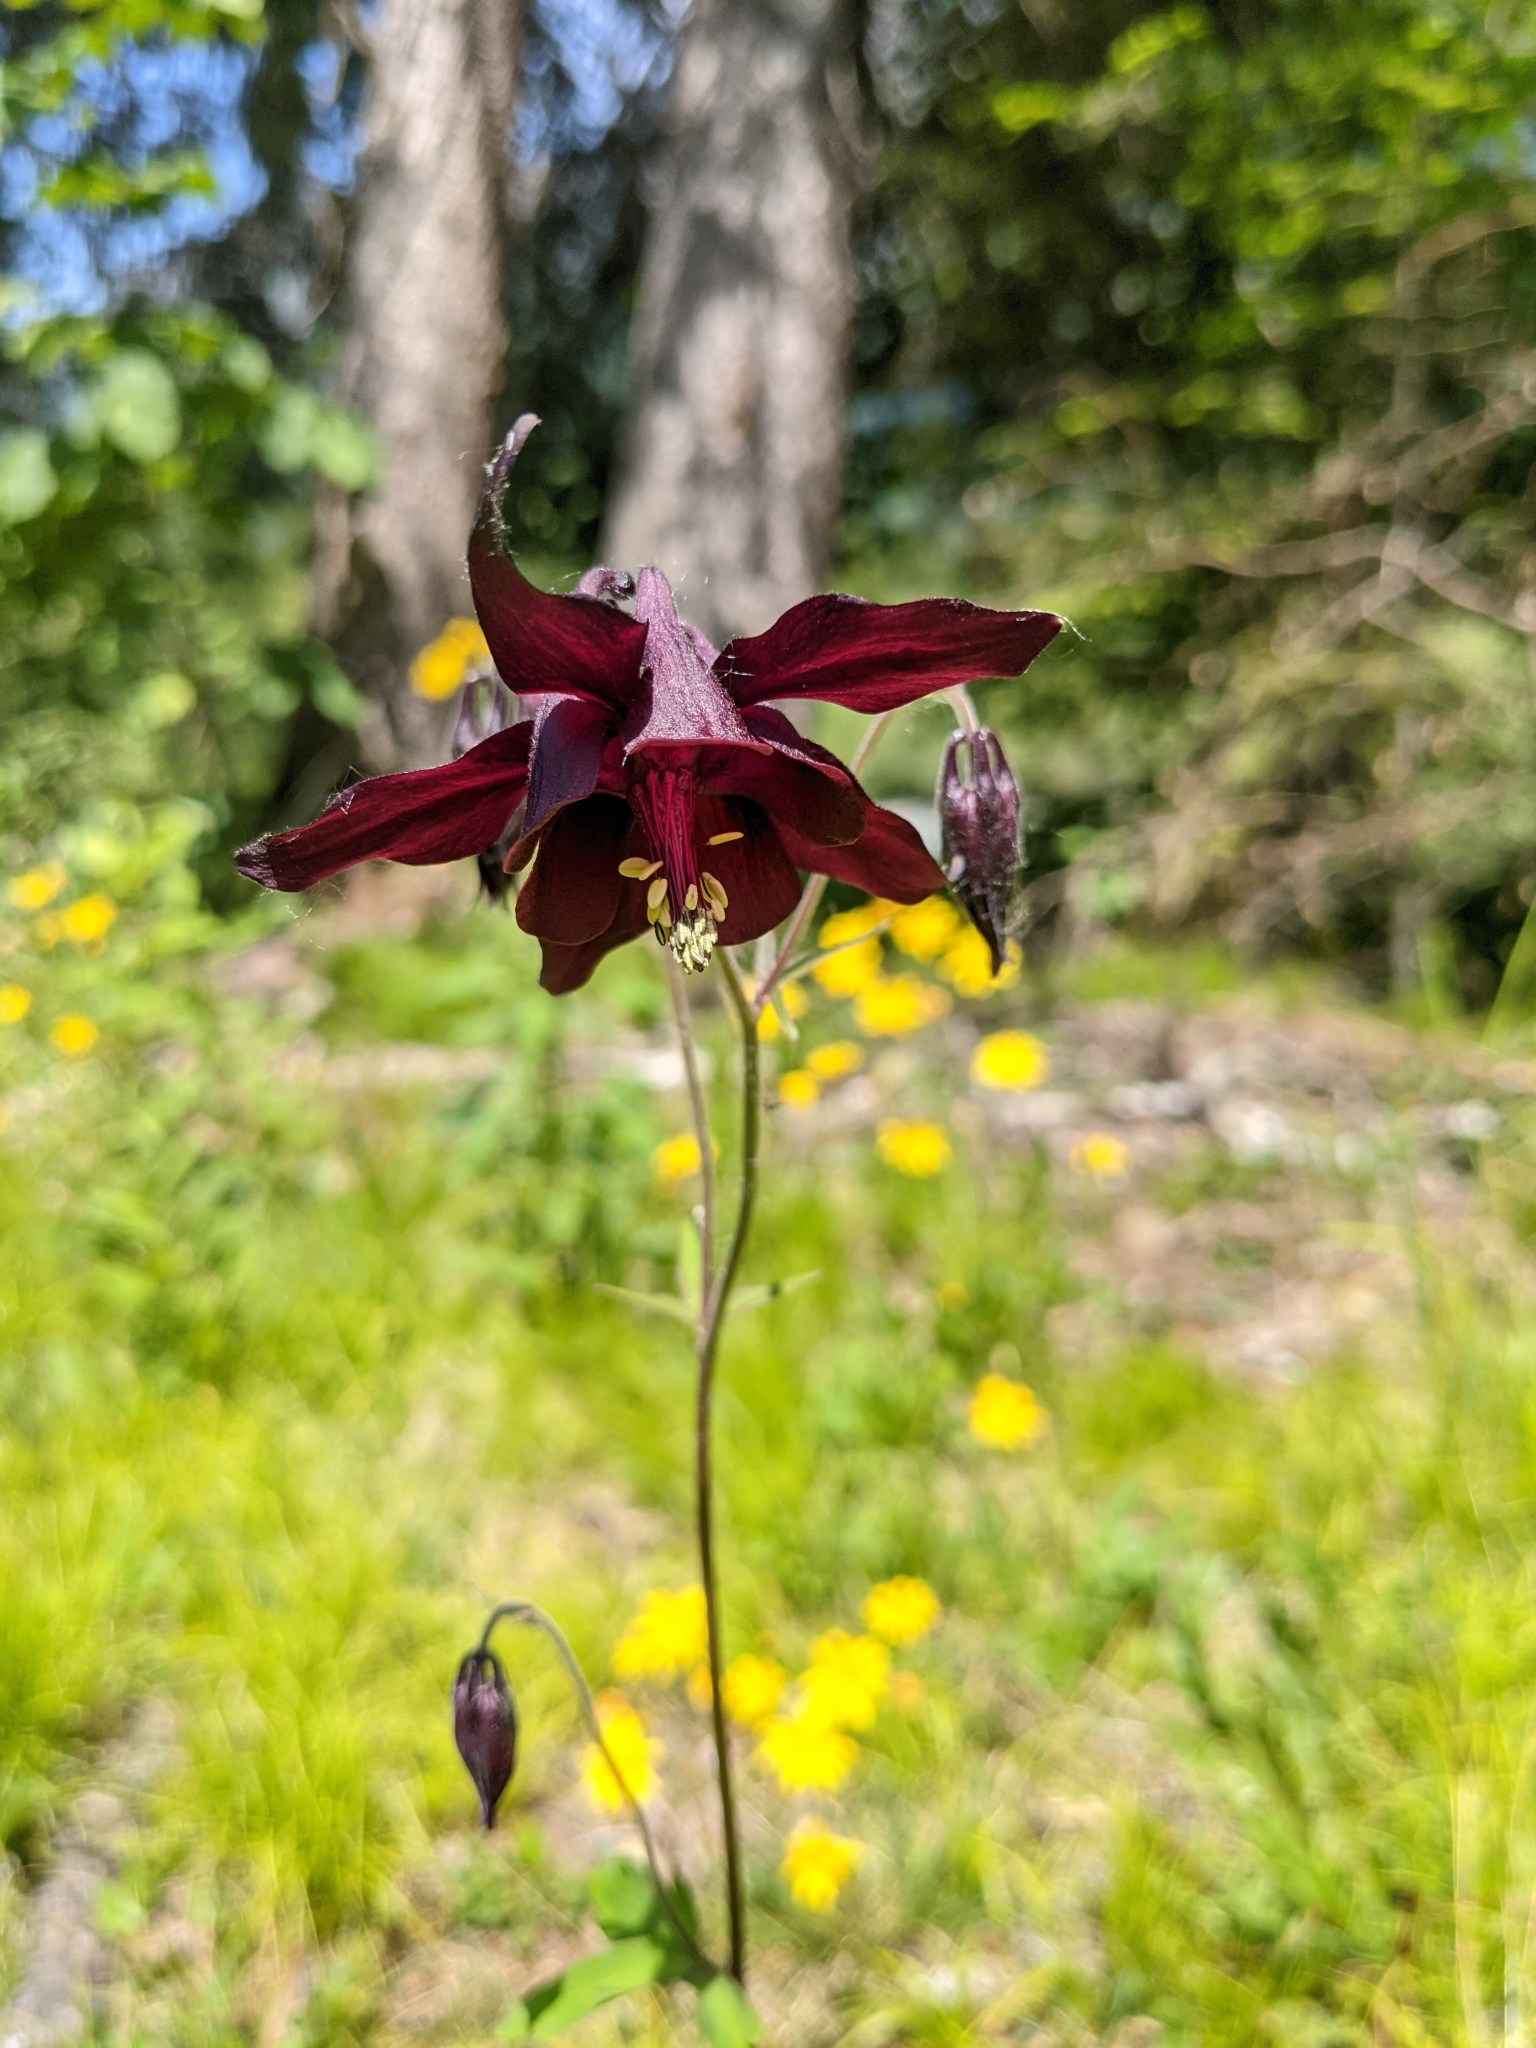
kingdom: Plantae
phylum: Tracheophyta
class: Magnoliopsida
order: Ranunculales
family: Ranunculaceae
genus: Aquilegia
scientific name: Aquilegia atrata
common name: Dark columbine
